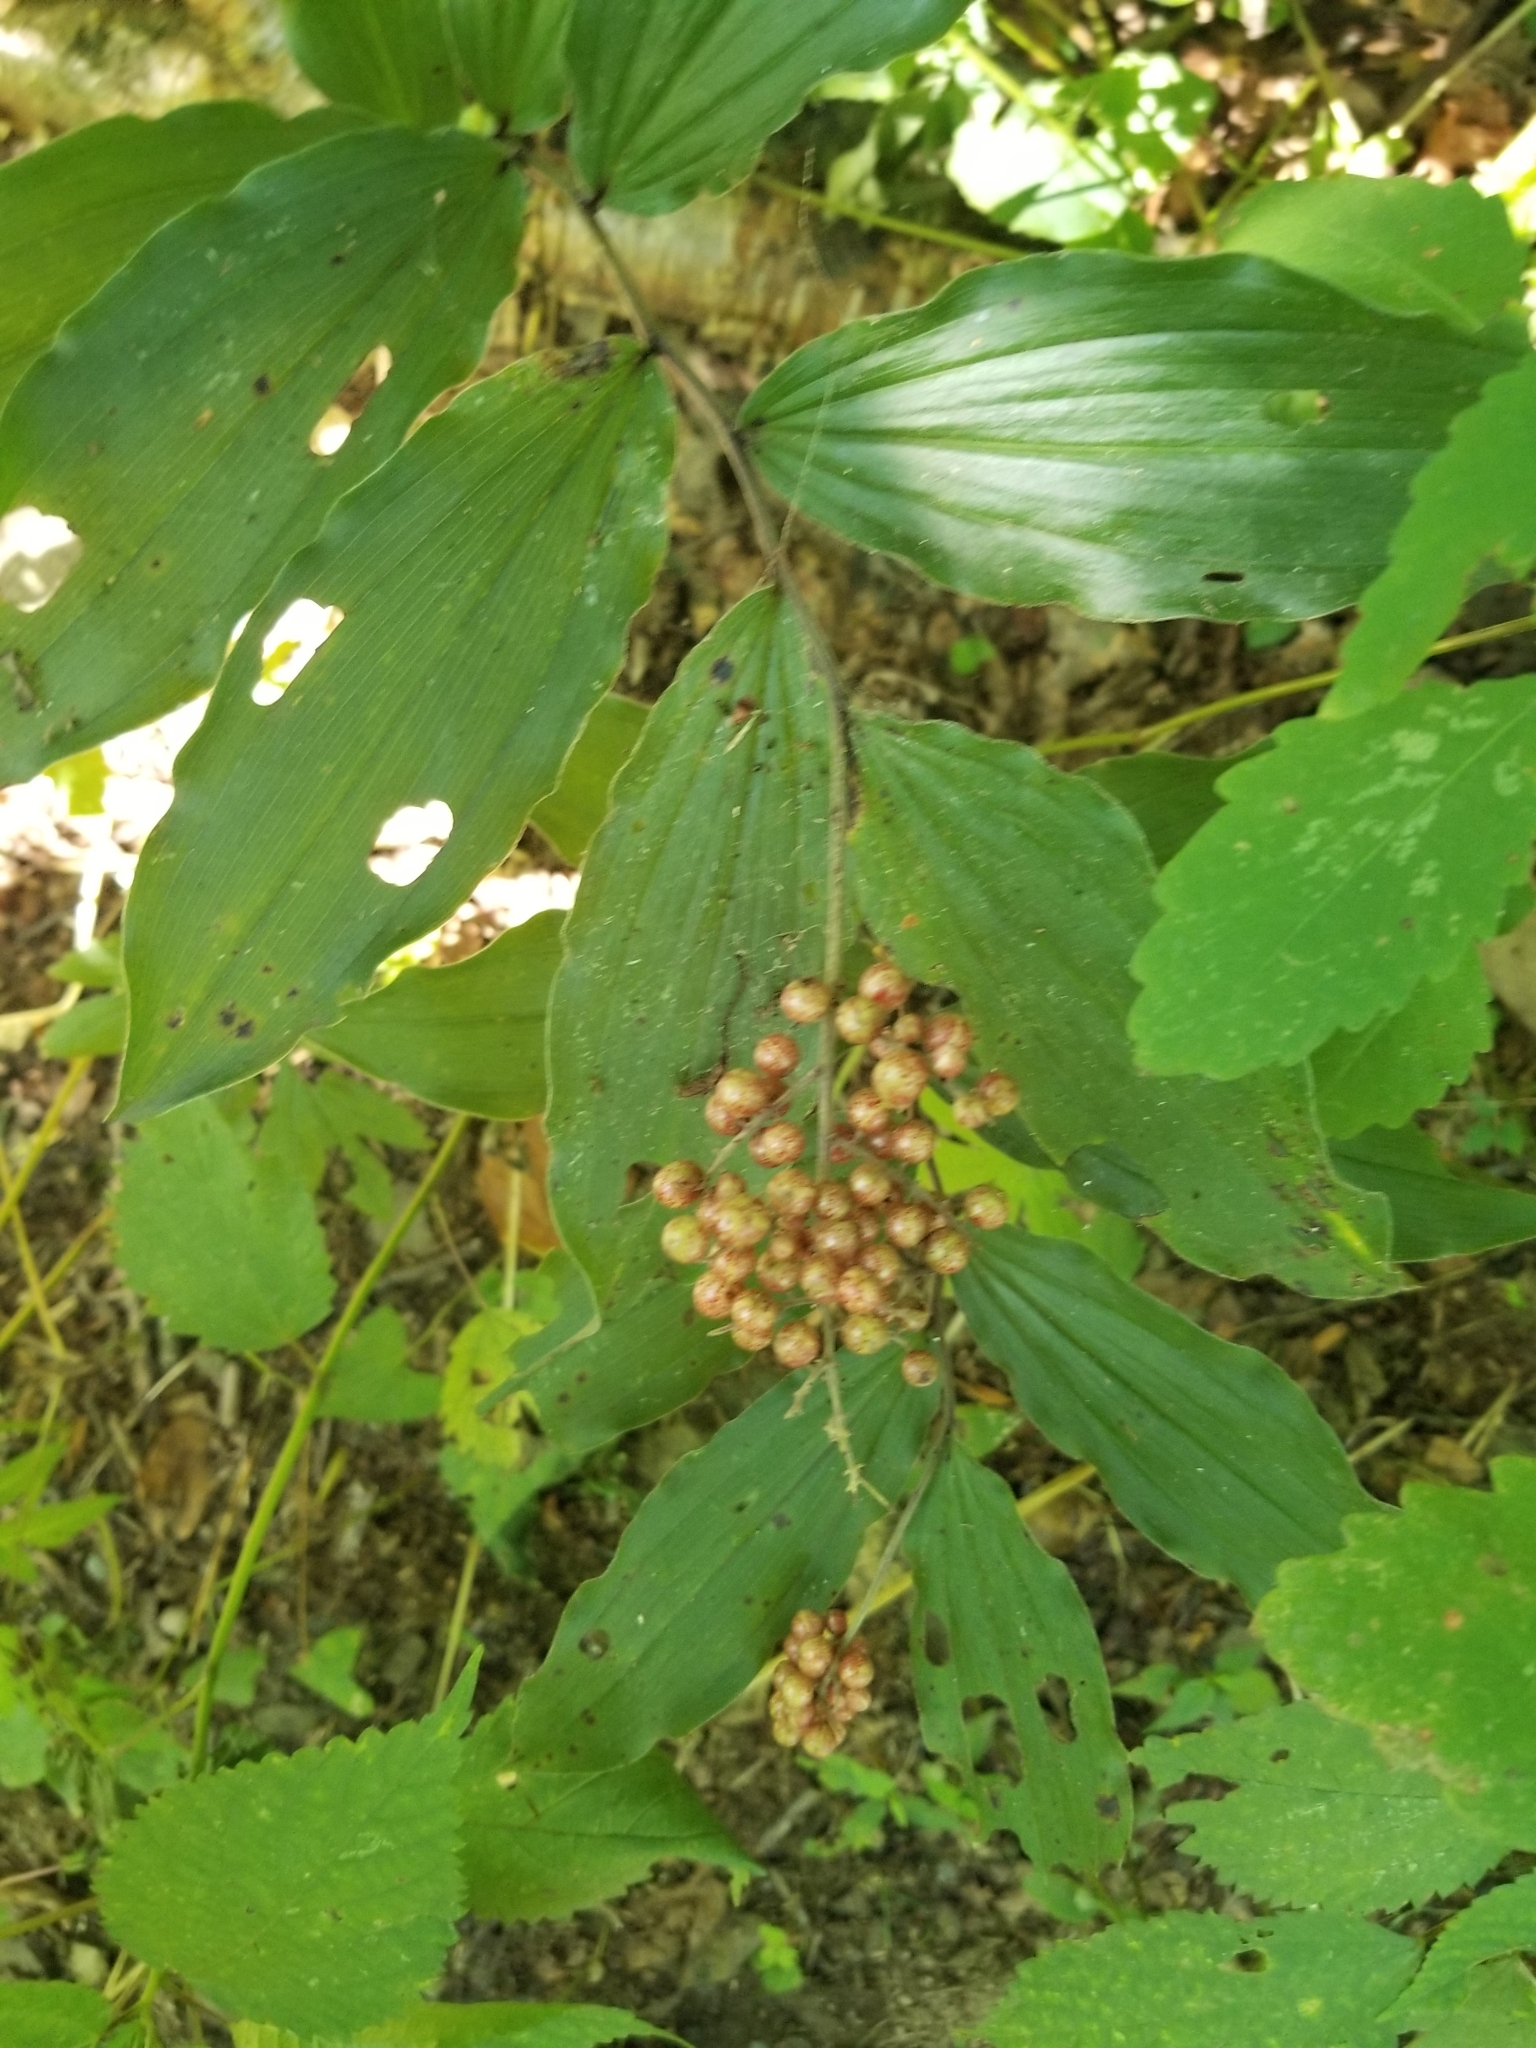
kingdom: Plantae
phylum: Tracheophyta
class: Liliopsida
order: Asparagales
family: Asparagaceae
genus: Maianthemum
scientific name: Maianthemum racemosum
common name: False spikenard
